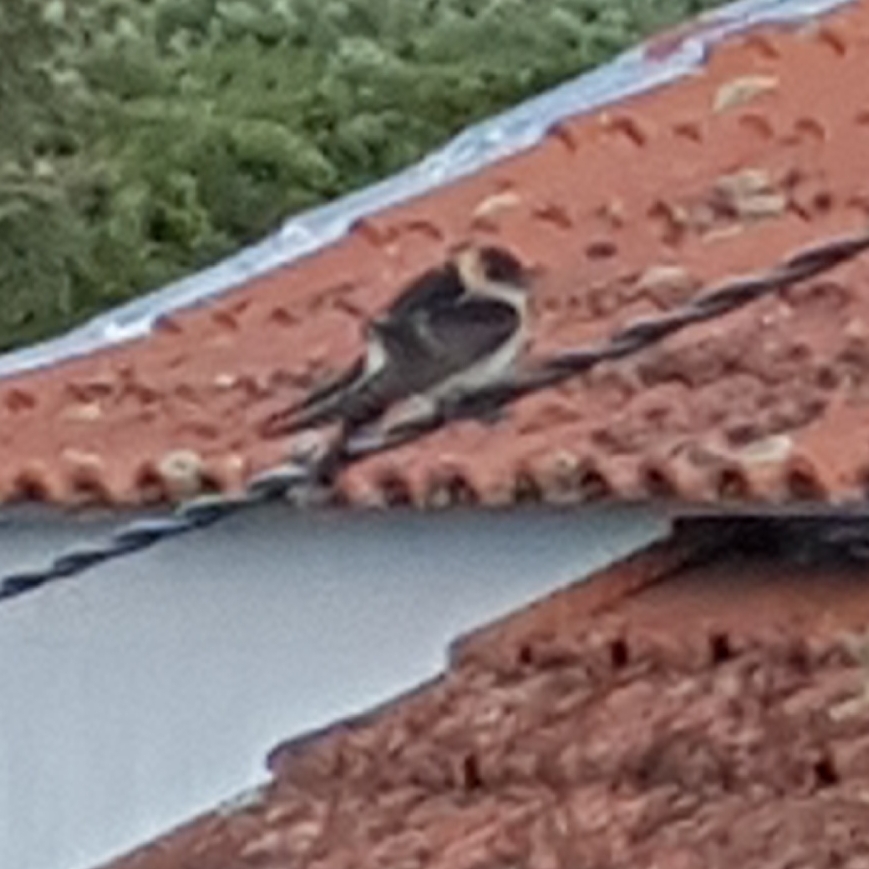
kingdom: Animalia
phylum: Chordata
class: Aves
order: Passeriformes
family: Hirundinidae
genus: Cecropis
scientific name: Cecropis daurica
